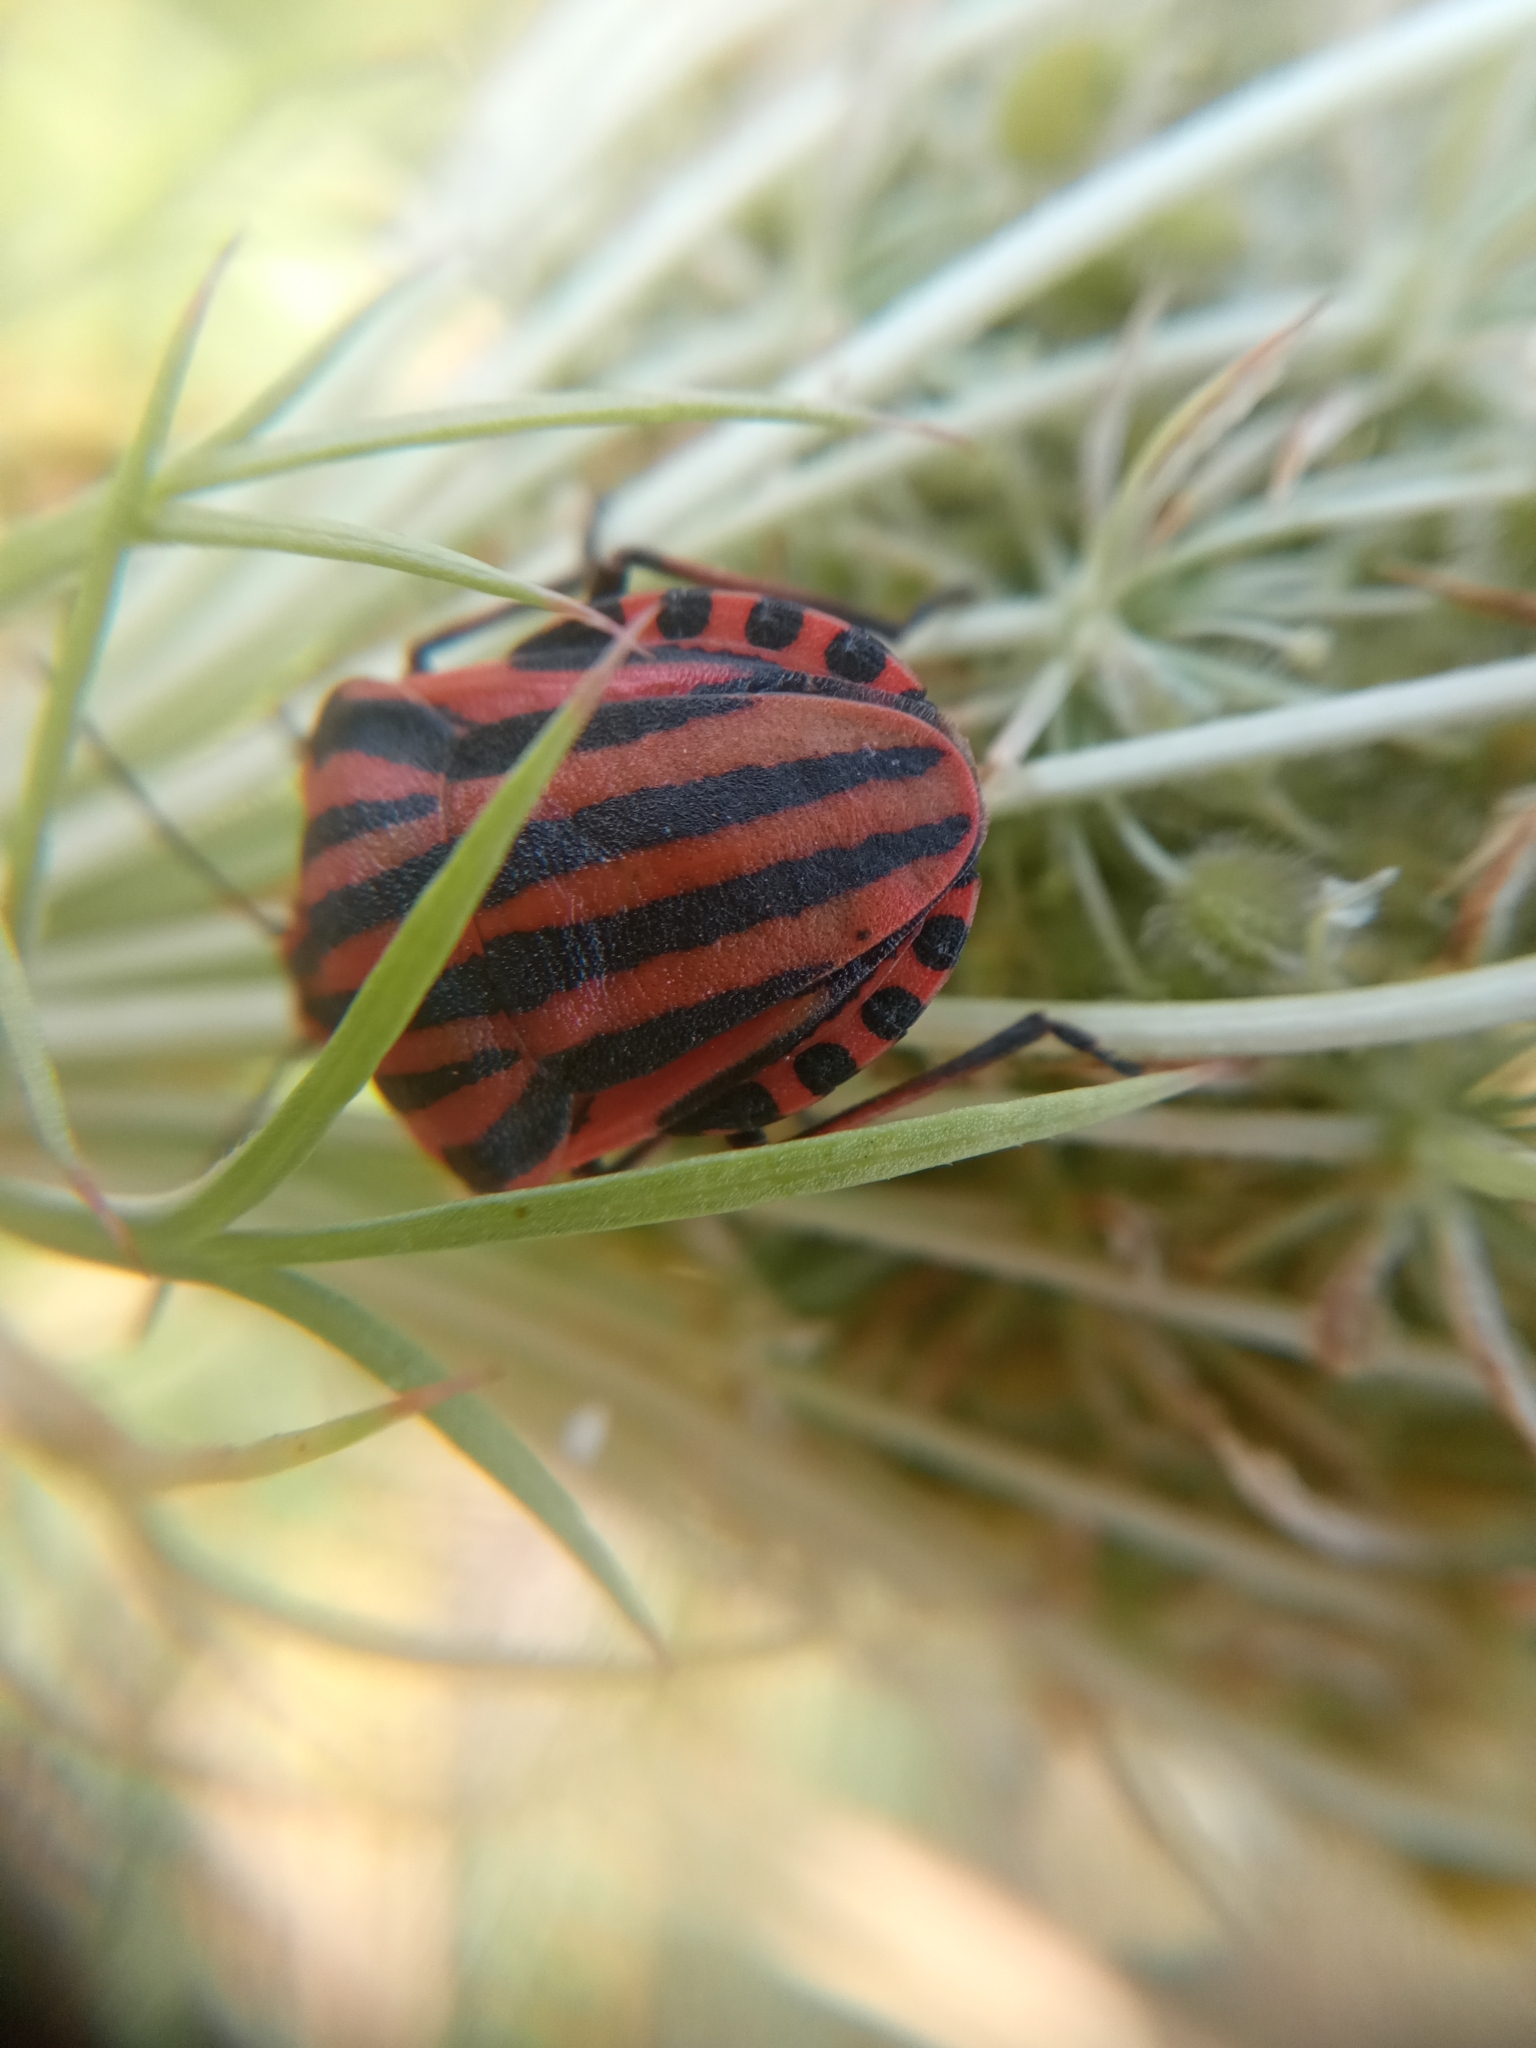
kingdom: Animalia
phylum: Arthropoda
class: Insecta
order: Hemiptera
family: Pentatomidae
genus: Graphosoma
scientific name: Graphosoma italicum
